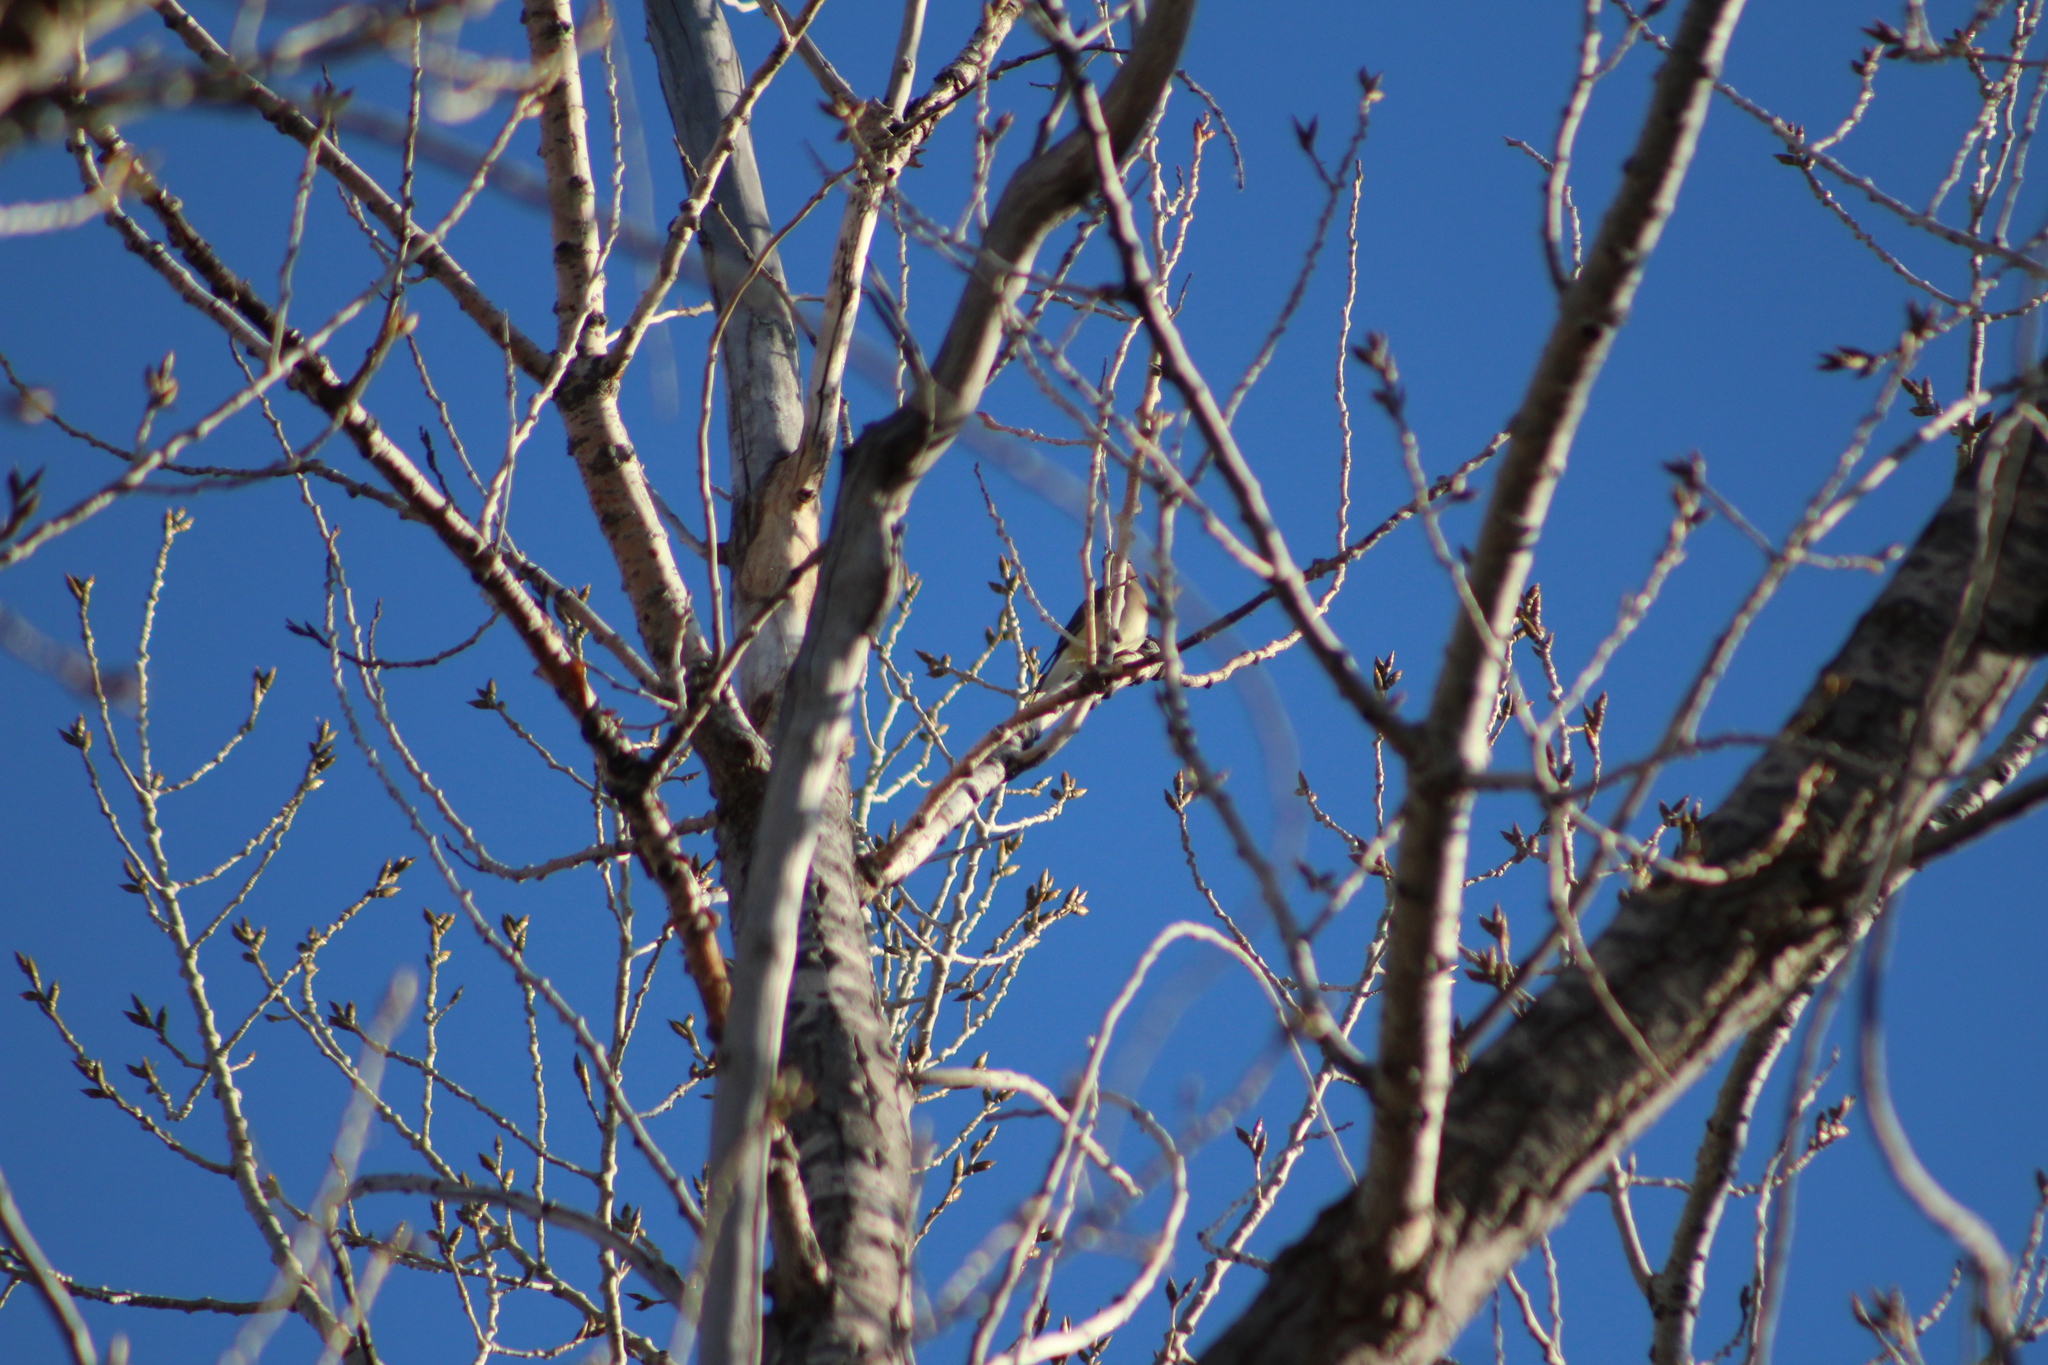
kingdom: Animalia
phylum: Chordata
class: Aves
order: Passeriformes
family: Bombycillidae
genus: Bombycilla
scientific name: Bombycilla cedrorum
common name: Cedar waxwing
